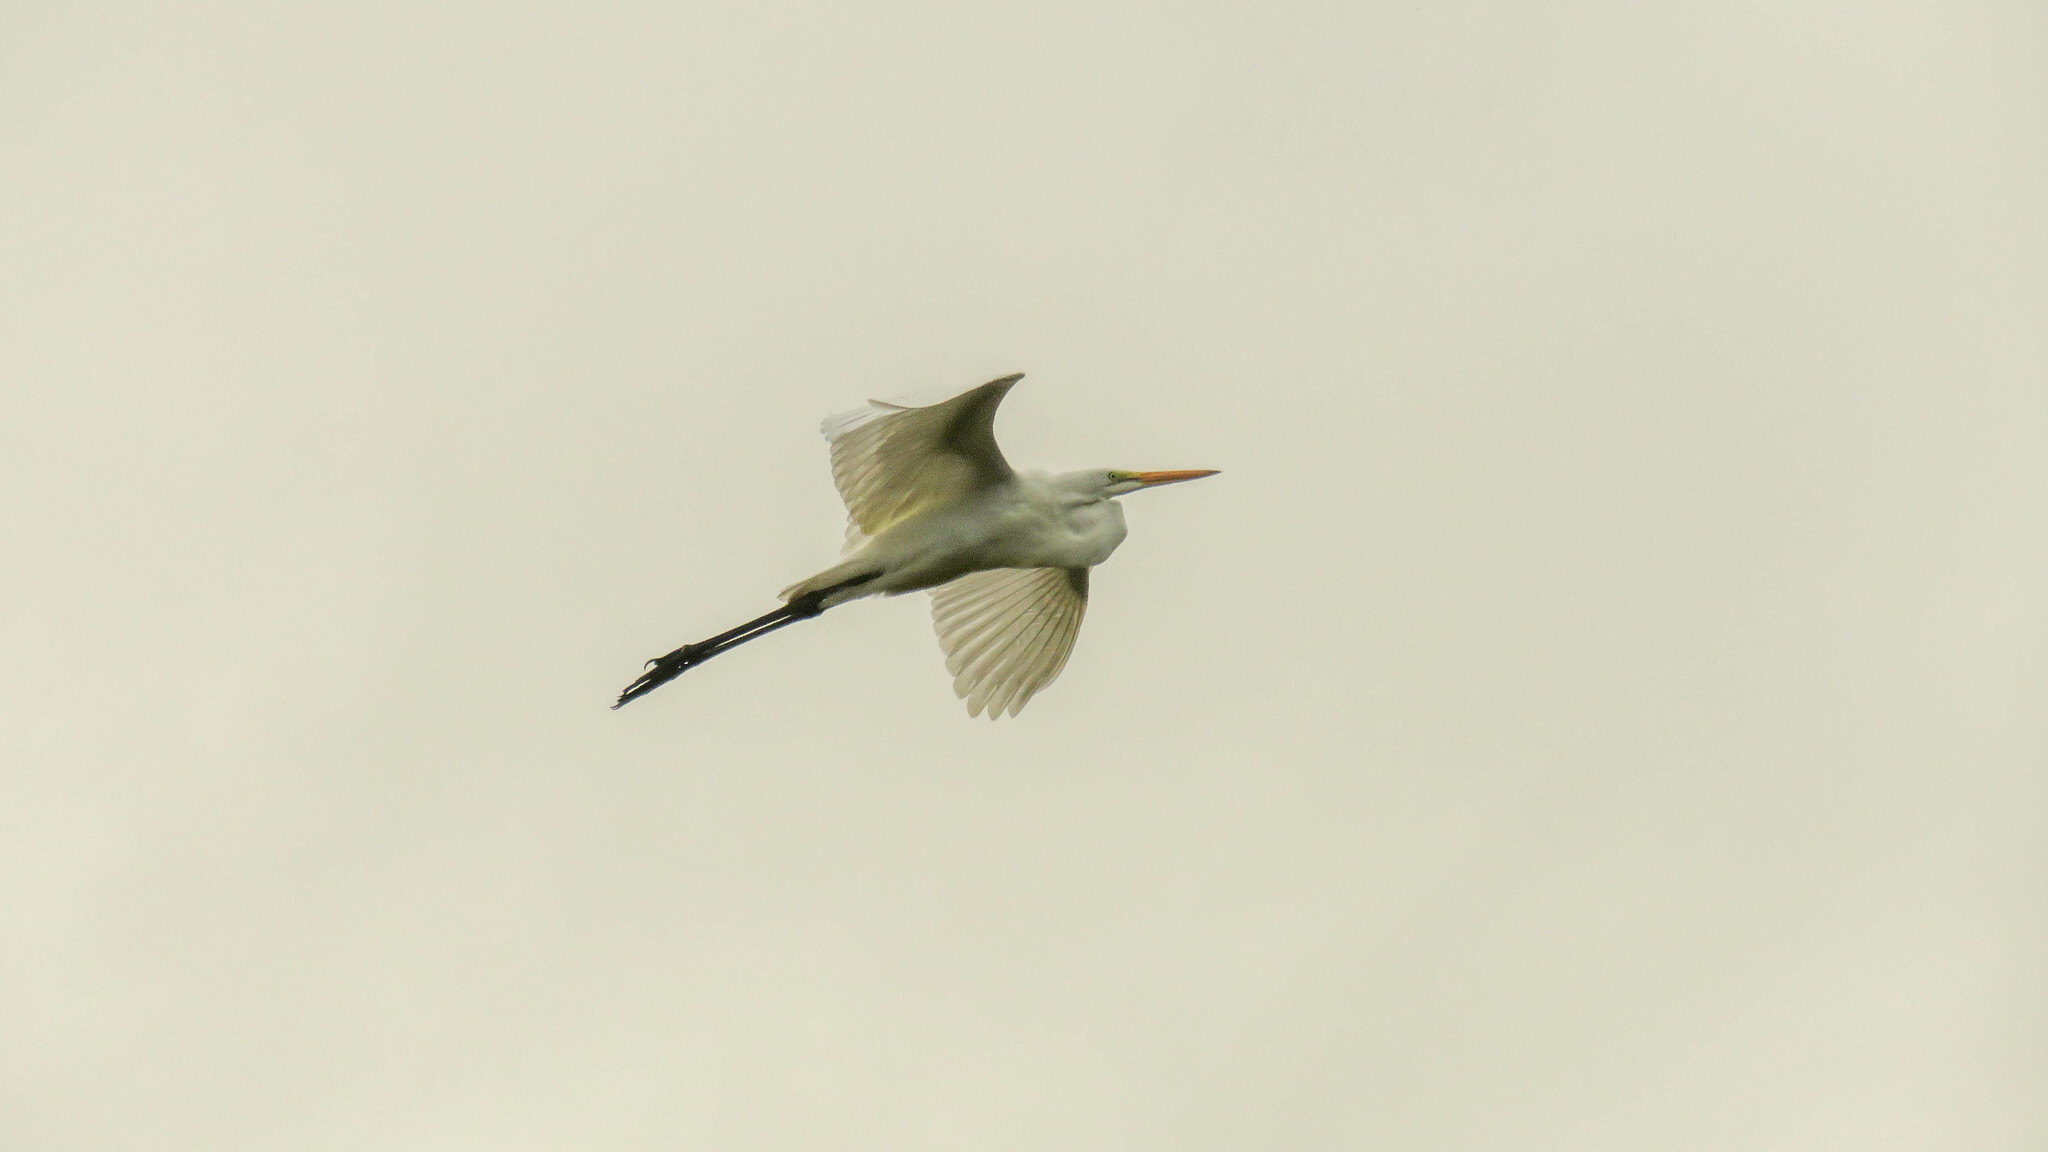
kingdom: Animalia
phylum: Chordata
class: Aves
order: Pelecaniformes
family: Ardeidae
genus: Ardea
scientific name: Ardea alba
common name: Great egret
